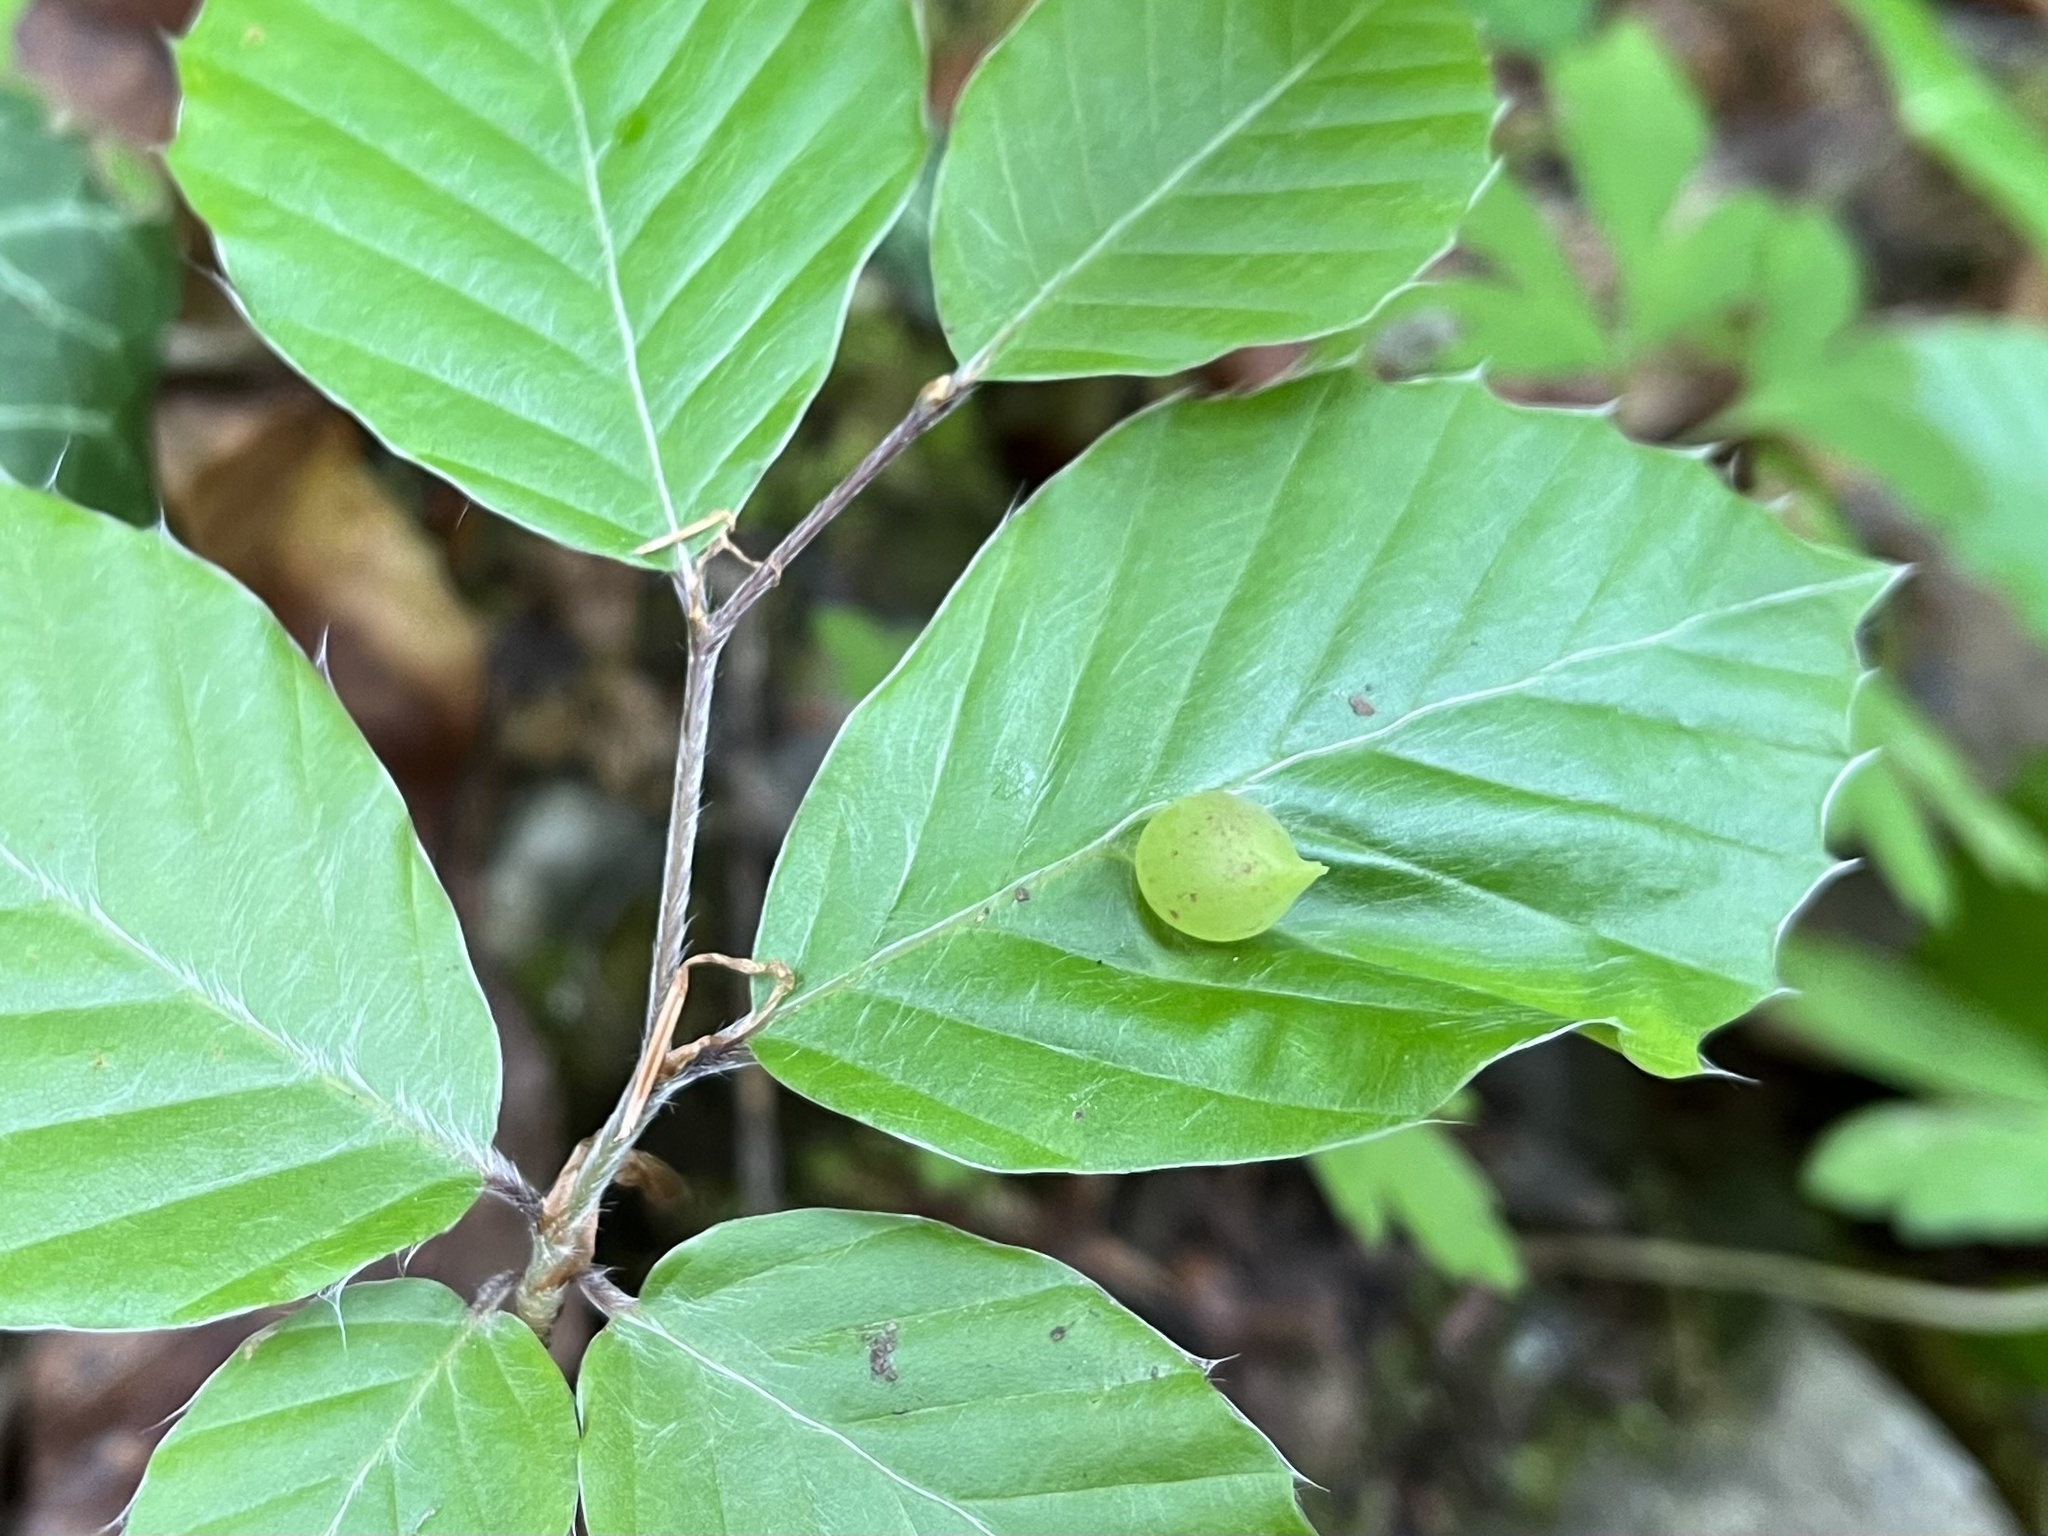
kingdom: Animalia
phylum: Arthropoda
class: Insecta
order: Diptera
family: Cecidomyiidae
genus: Mikiola
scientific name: Mikiola fagi
